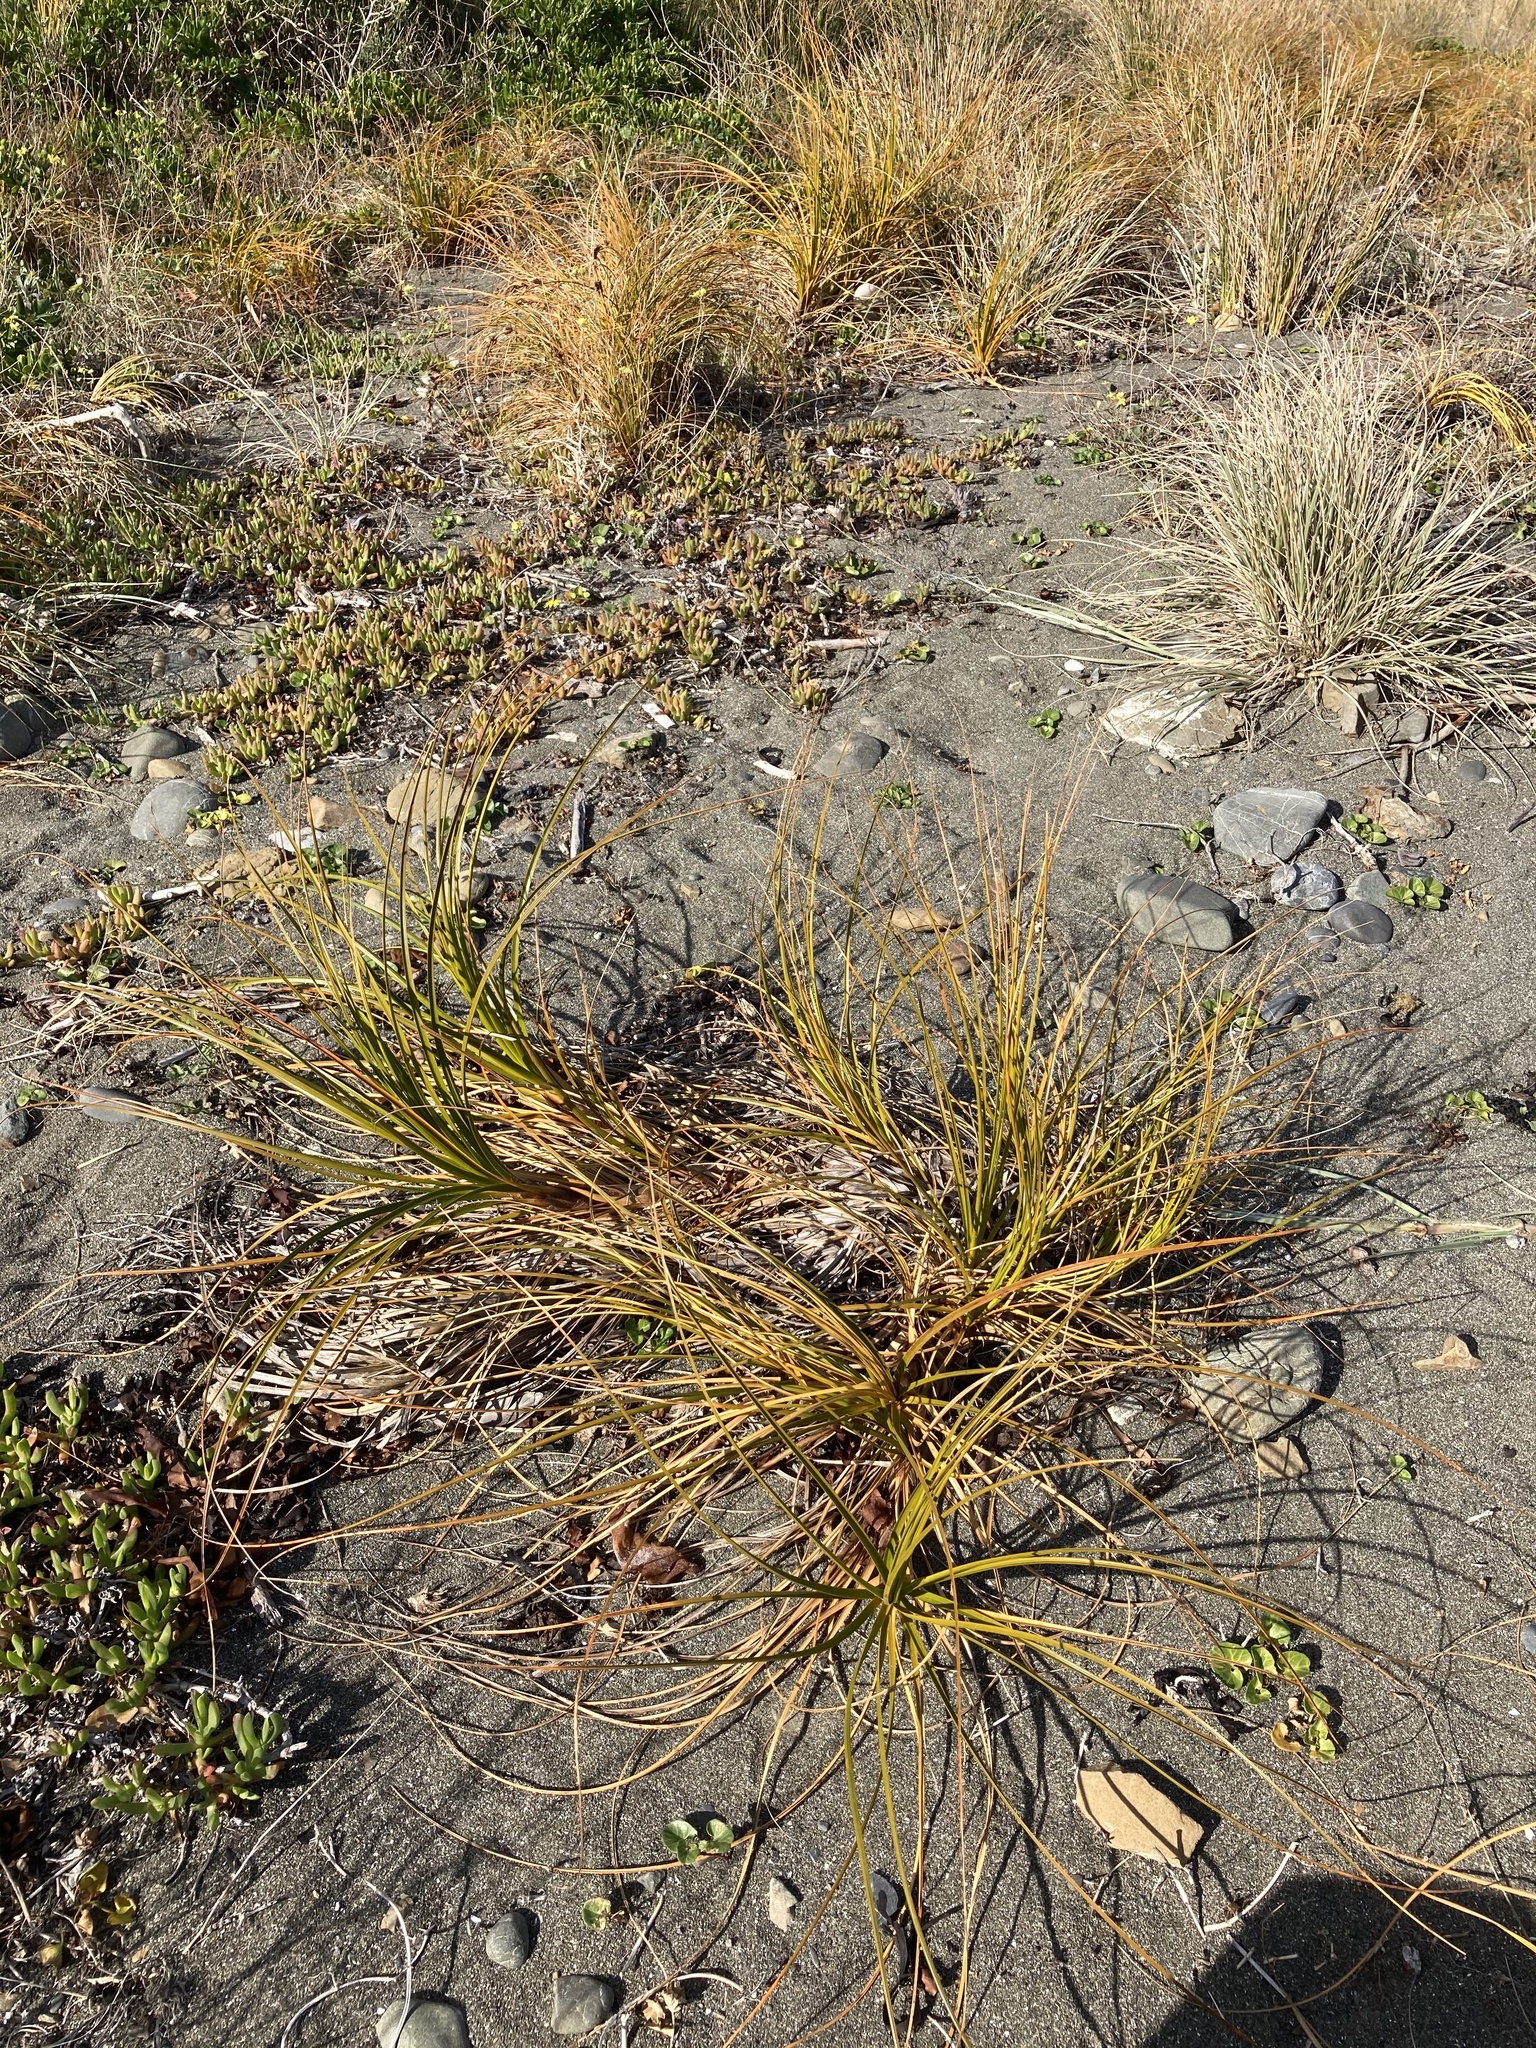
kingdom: Plantae
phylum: Tracheophyta
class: Liliopsida
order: Poales
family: Cyperaceae
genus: Ficinia
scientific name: Ficinia spiralis
